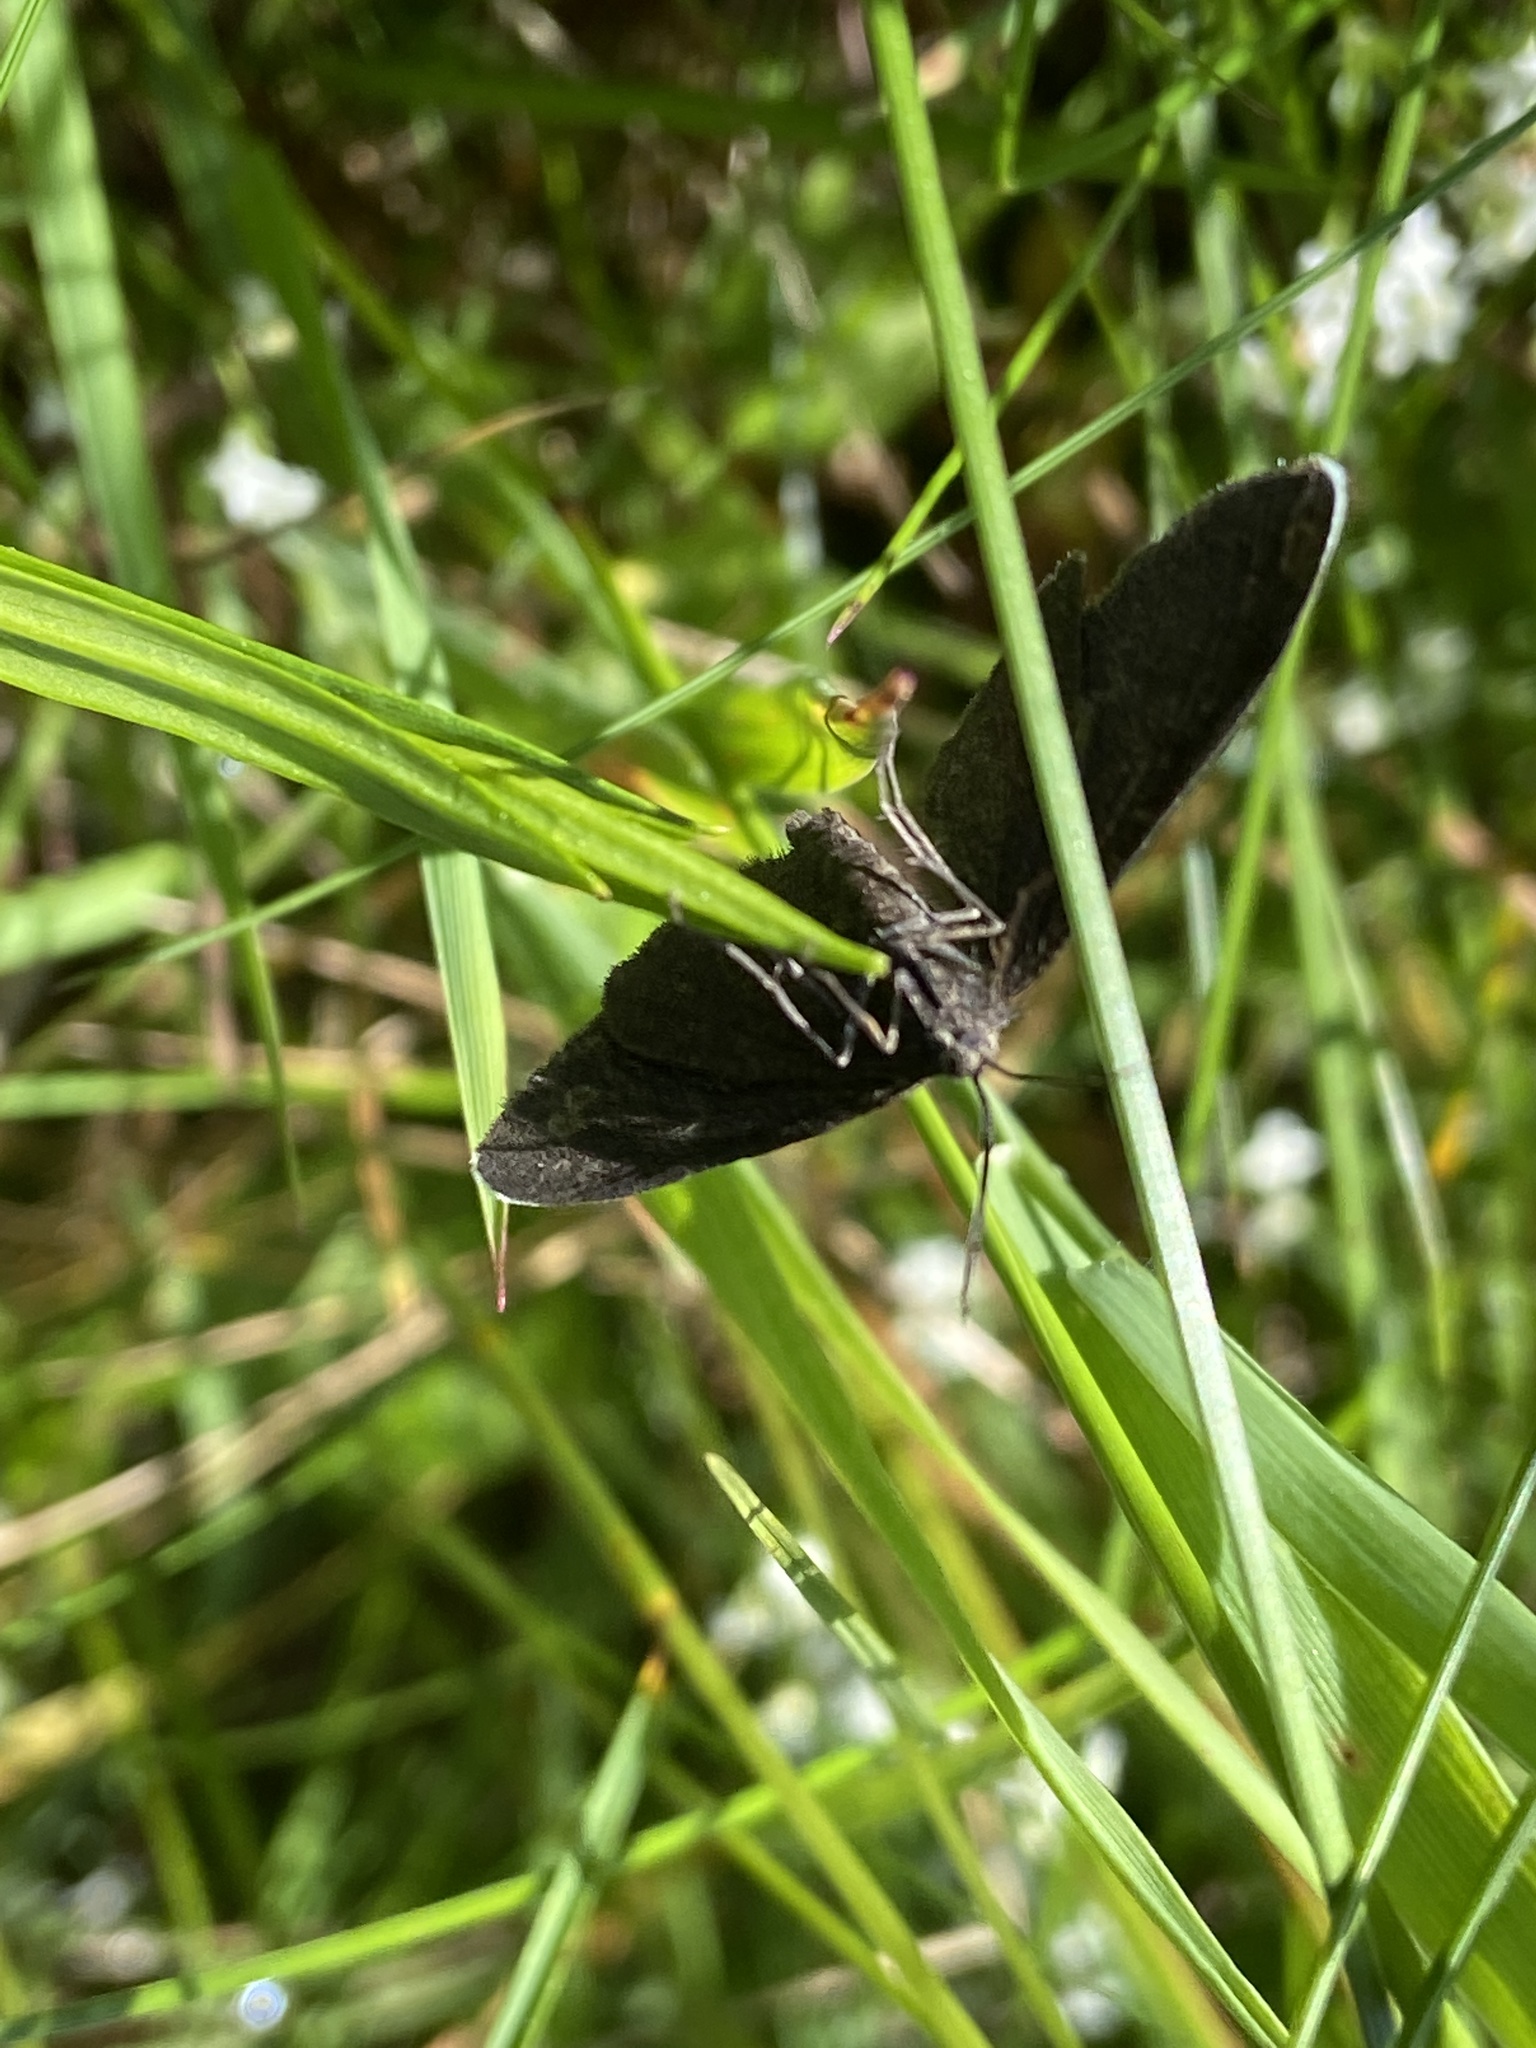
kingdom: Animalia
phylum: Arthropoda
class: Insecta
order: Lepidoptera
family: Geometridae
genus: Odezia
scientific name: Odezia atrata
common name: Chimney sweeper
